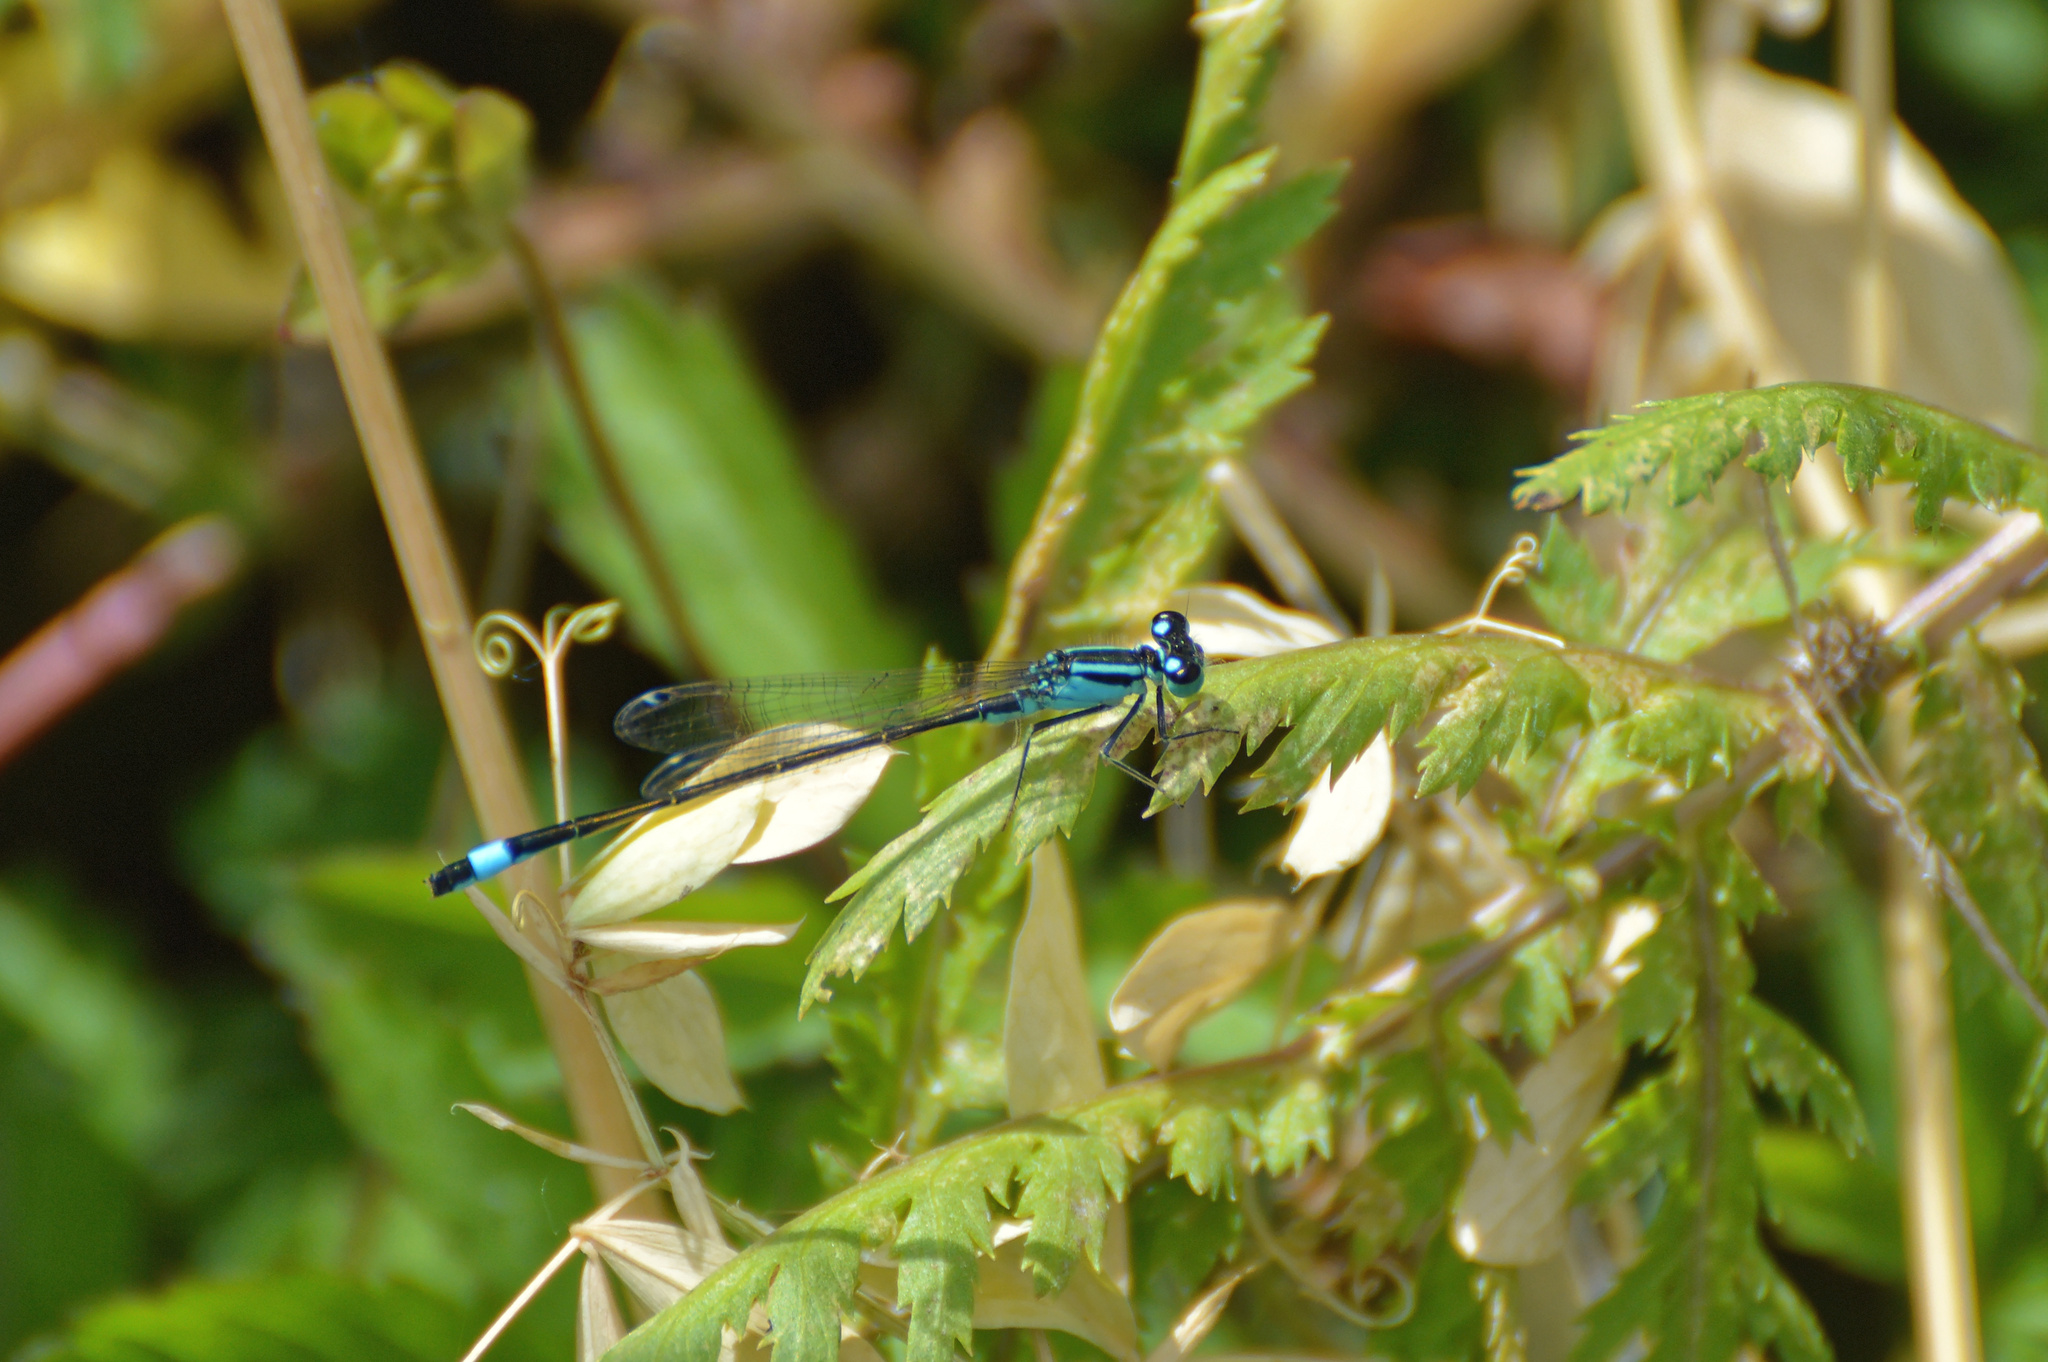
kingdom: Animalia
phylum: Arthropoda
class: Insecta
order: Odonata
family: Coenagrionidae
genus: Ischnura
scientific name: Ischnura elegans
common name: Blue-tailed damselfly
